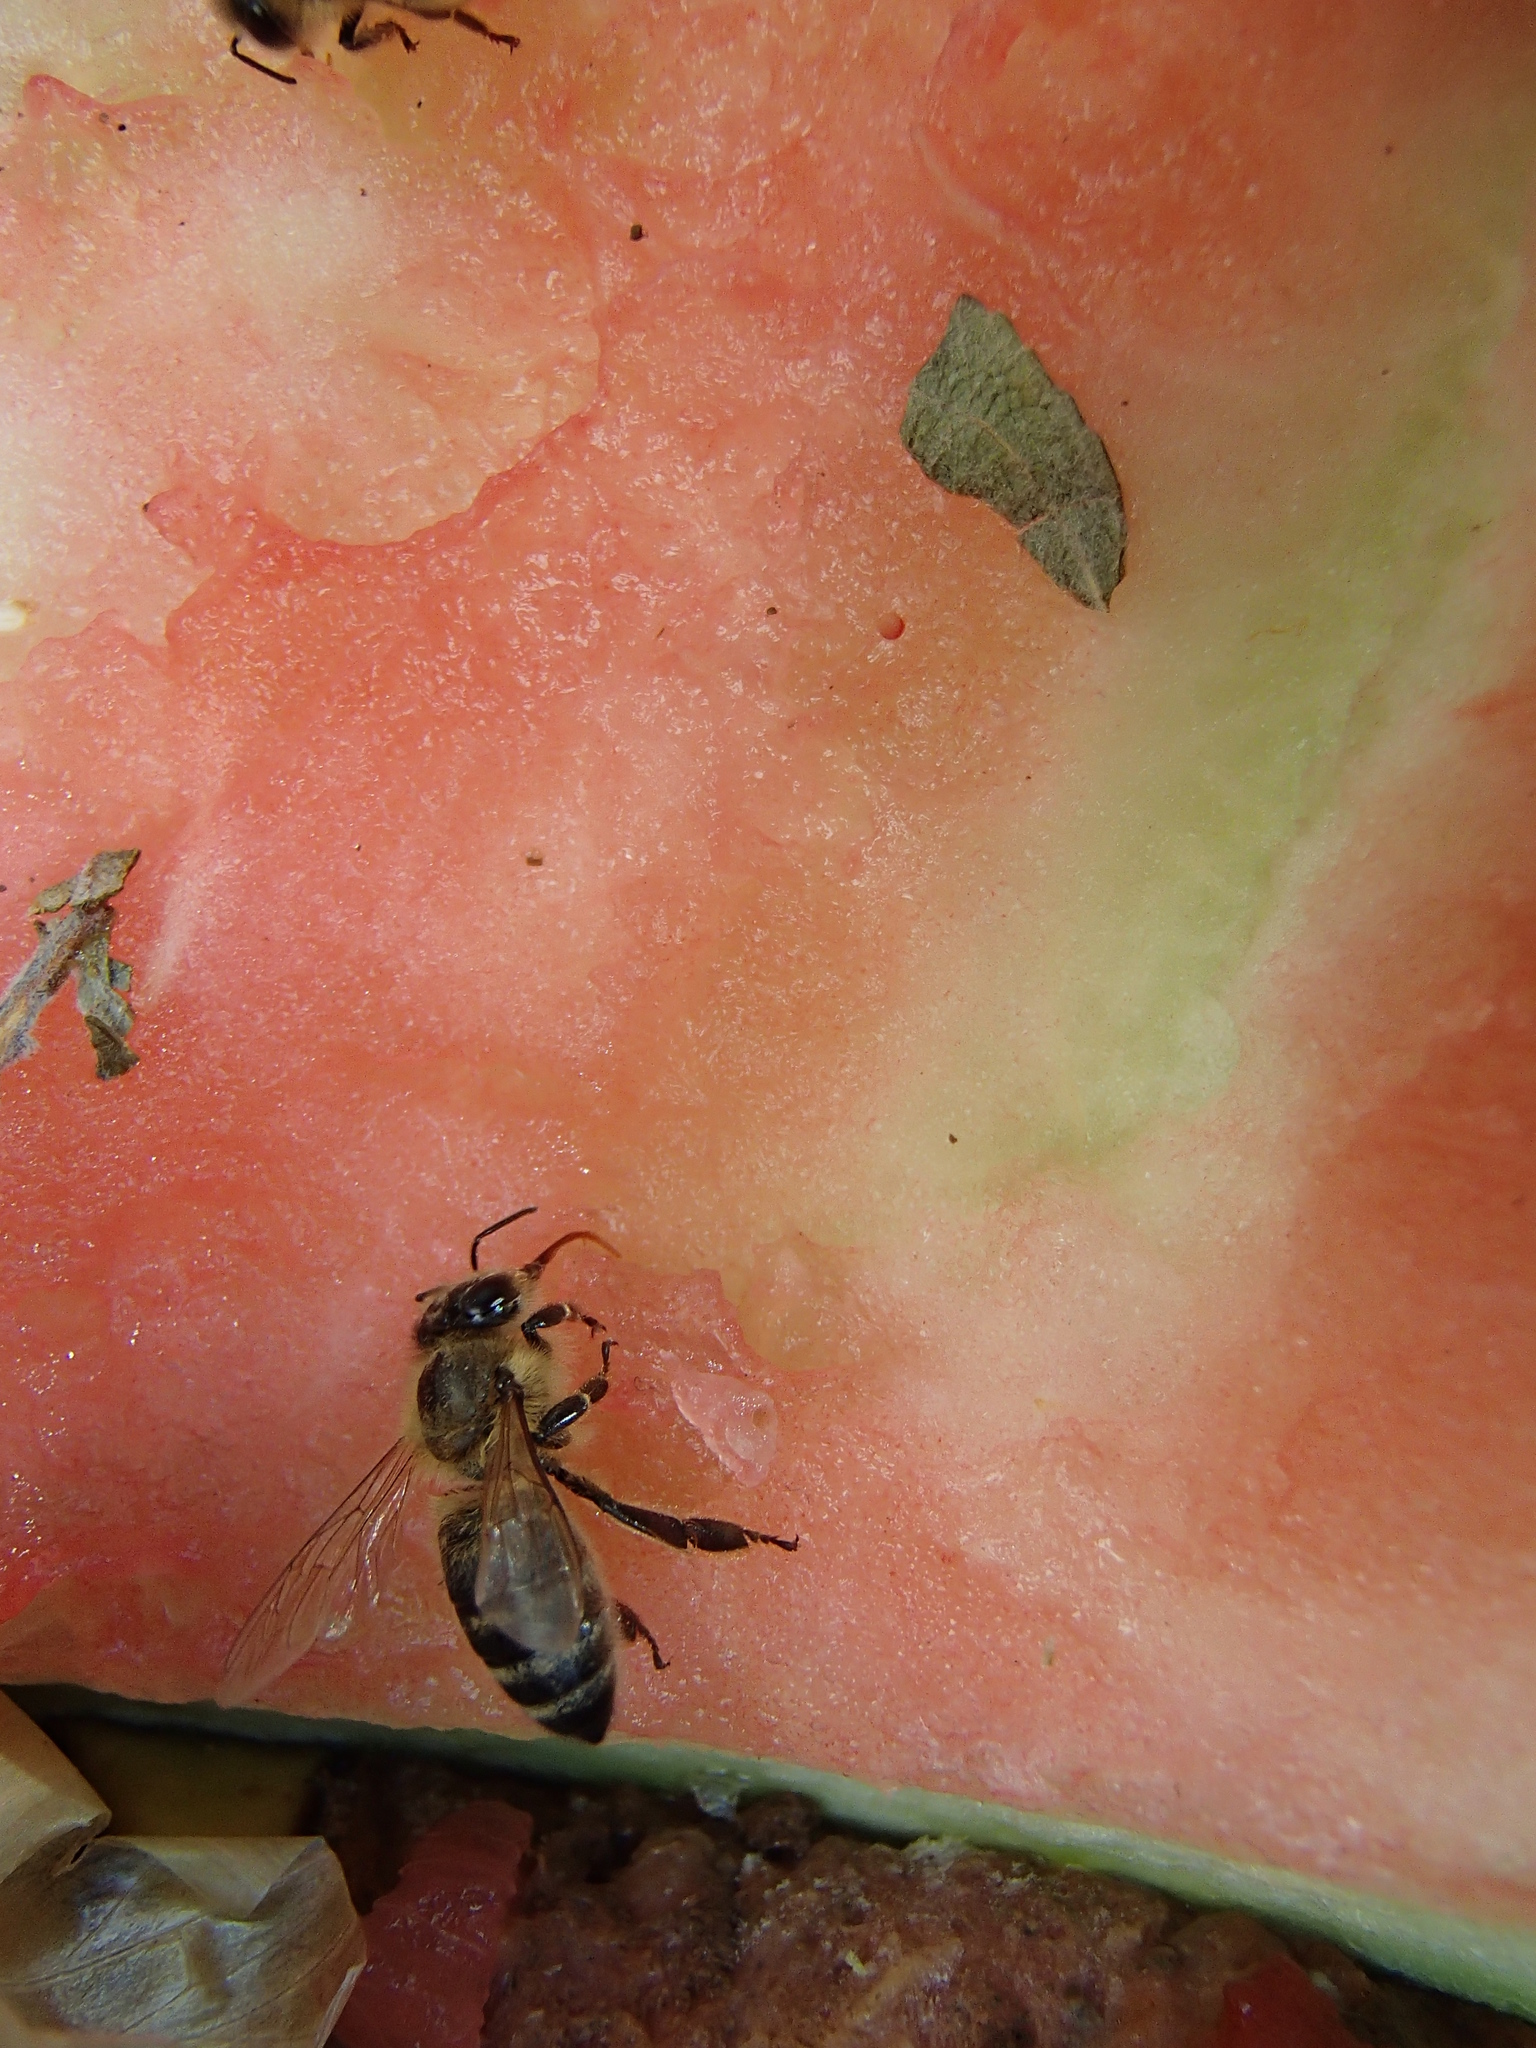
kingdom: Animalia
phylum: Arthropoda
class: Insecta
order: Hymenoptera
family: Apidae
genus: Apis
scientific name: Apis mellifera
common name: Honey bee
